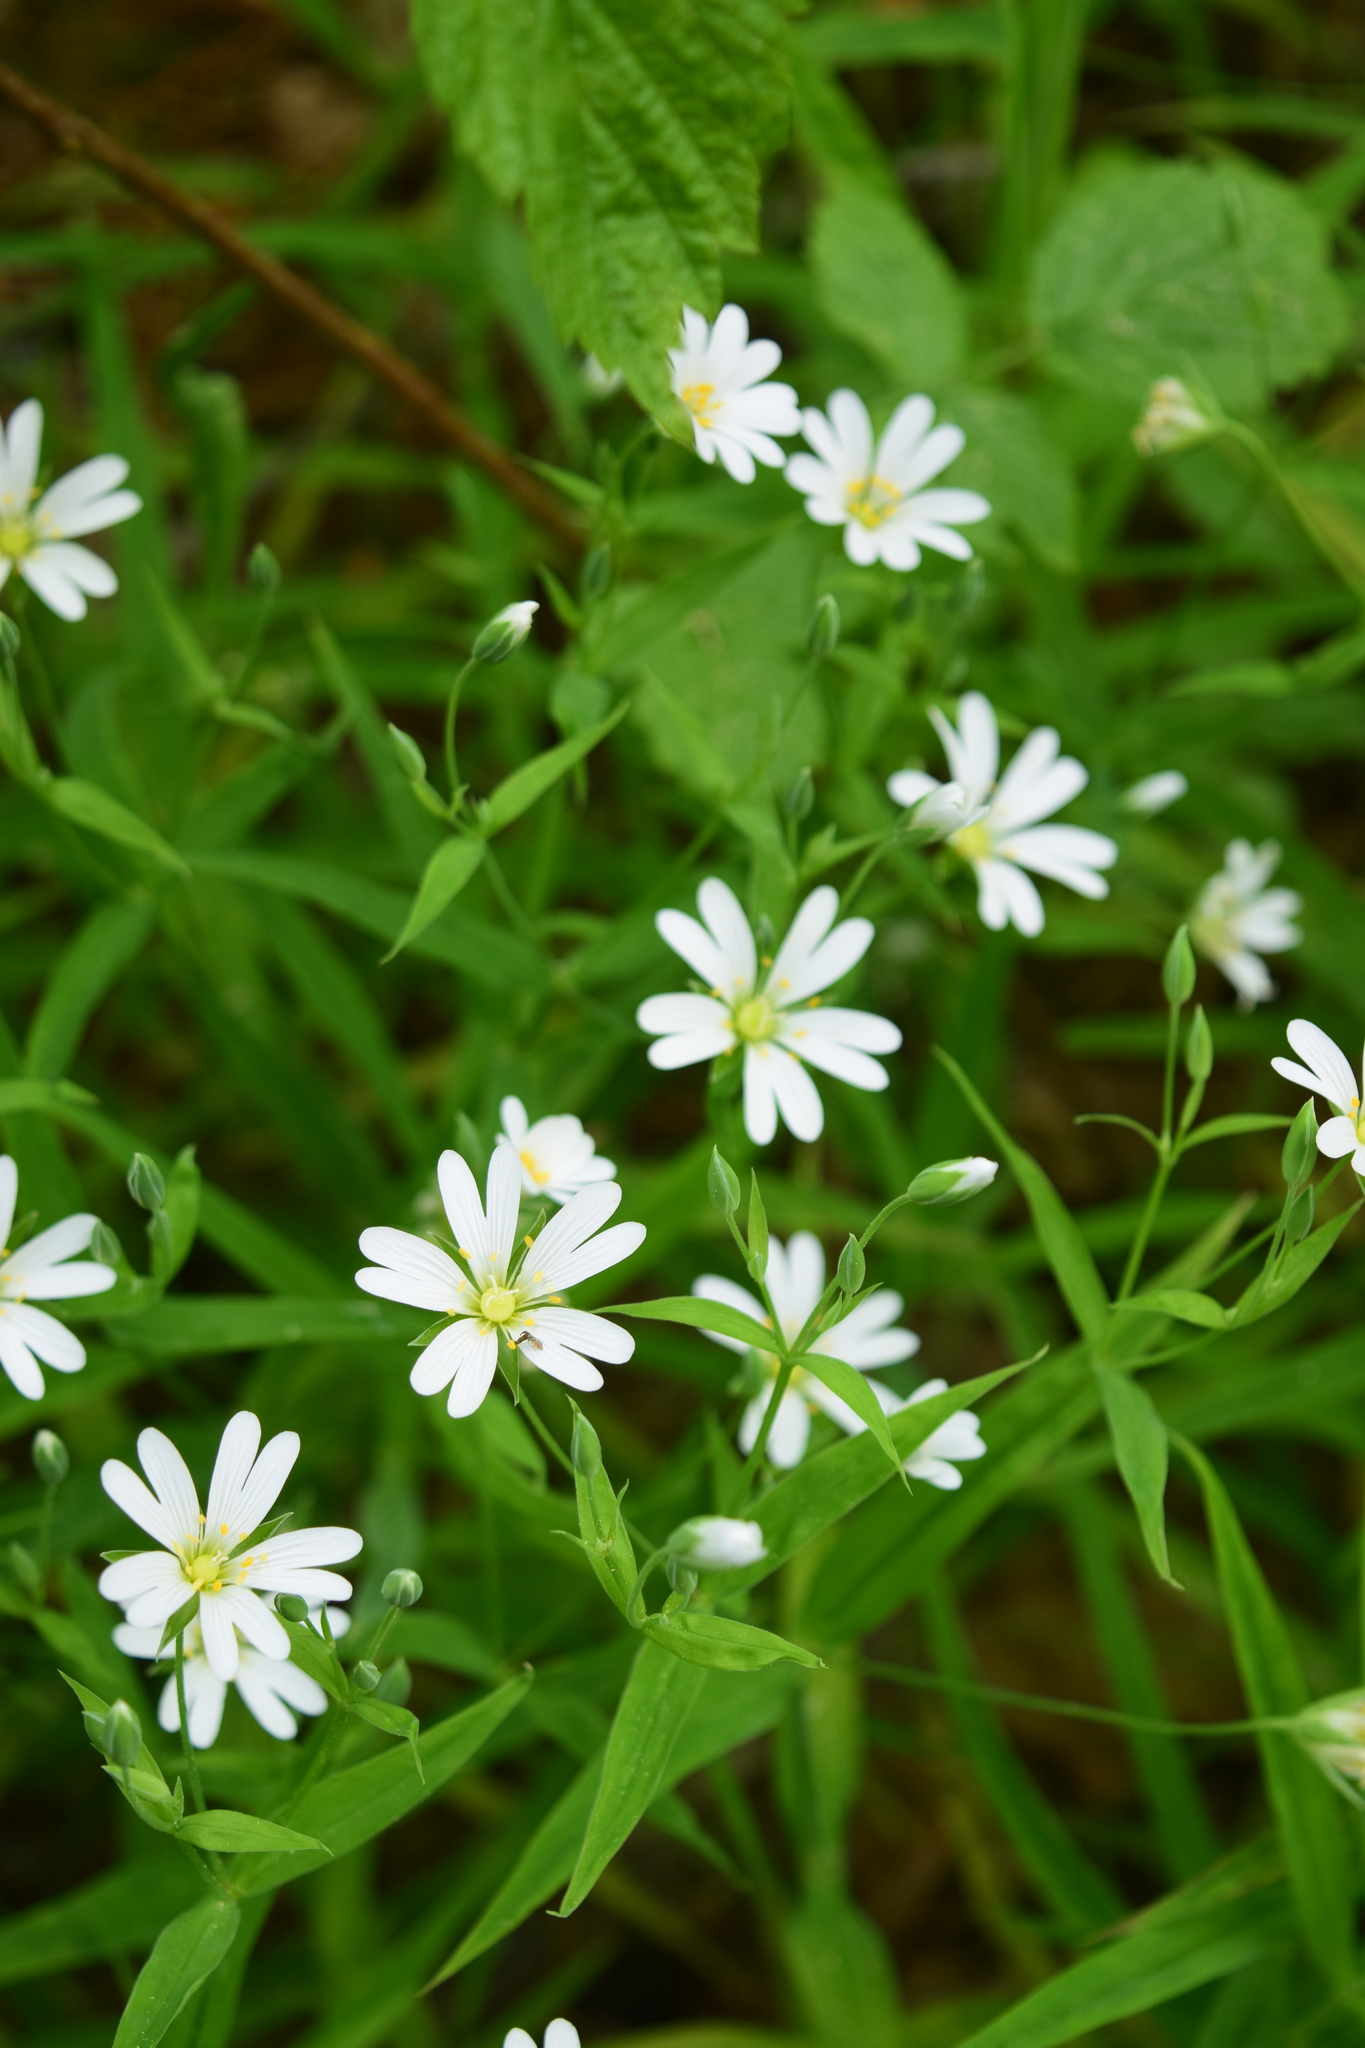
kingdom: Plantae
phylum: Tracheophyta
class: Magnoliopsida
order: Caryophyllales
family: Caryophyllaceae
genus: Rabelera
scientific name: Rabelera holostea
